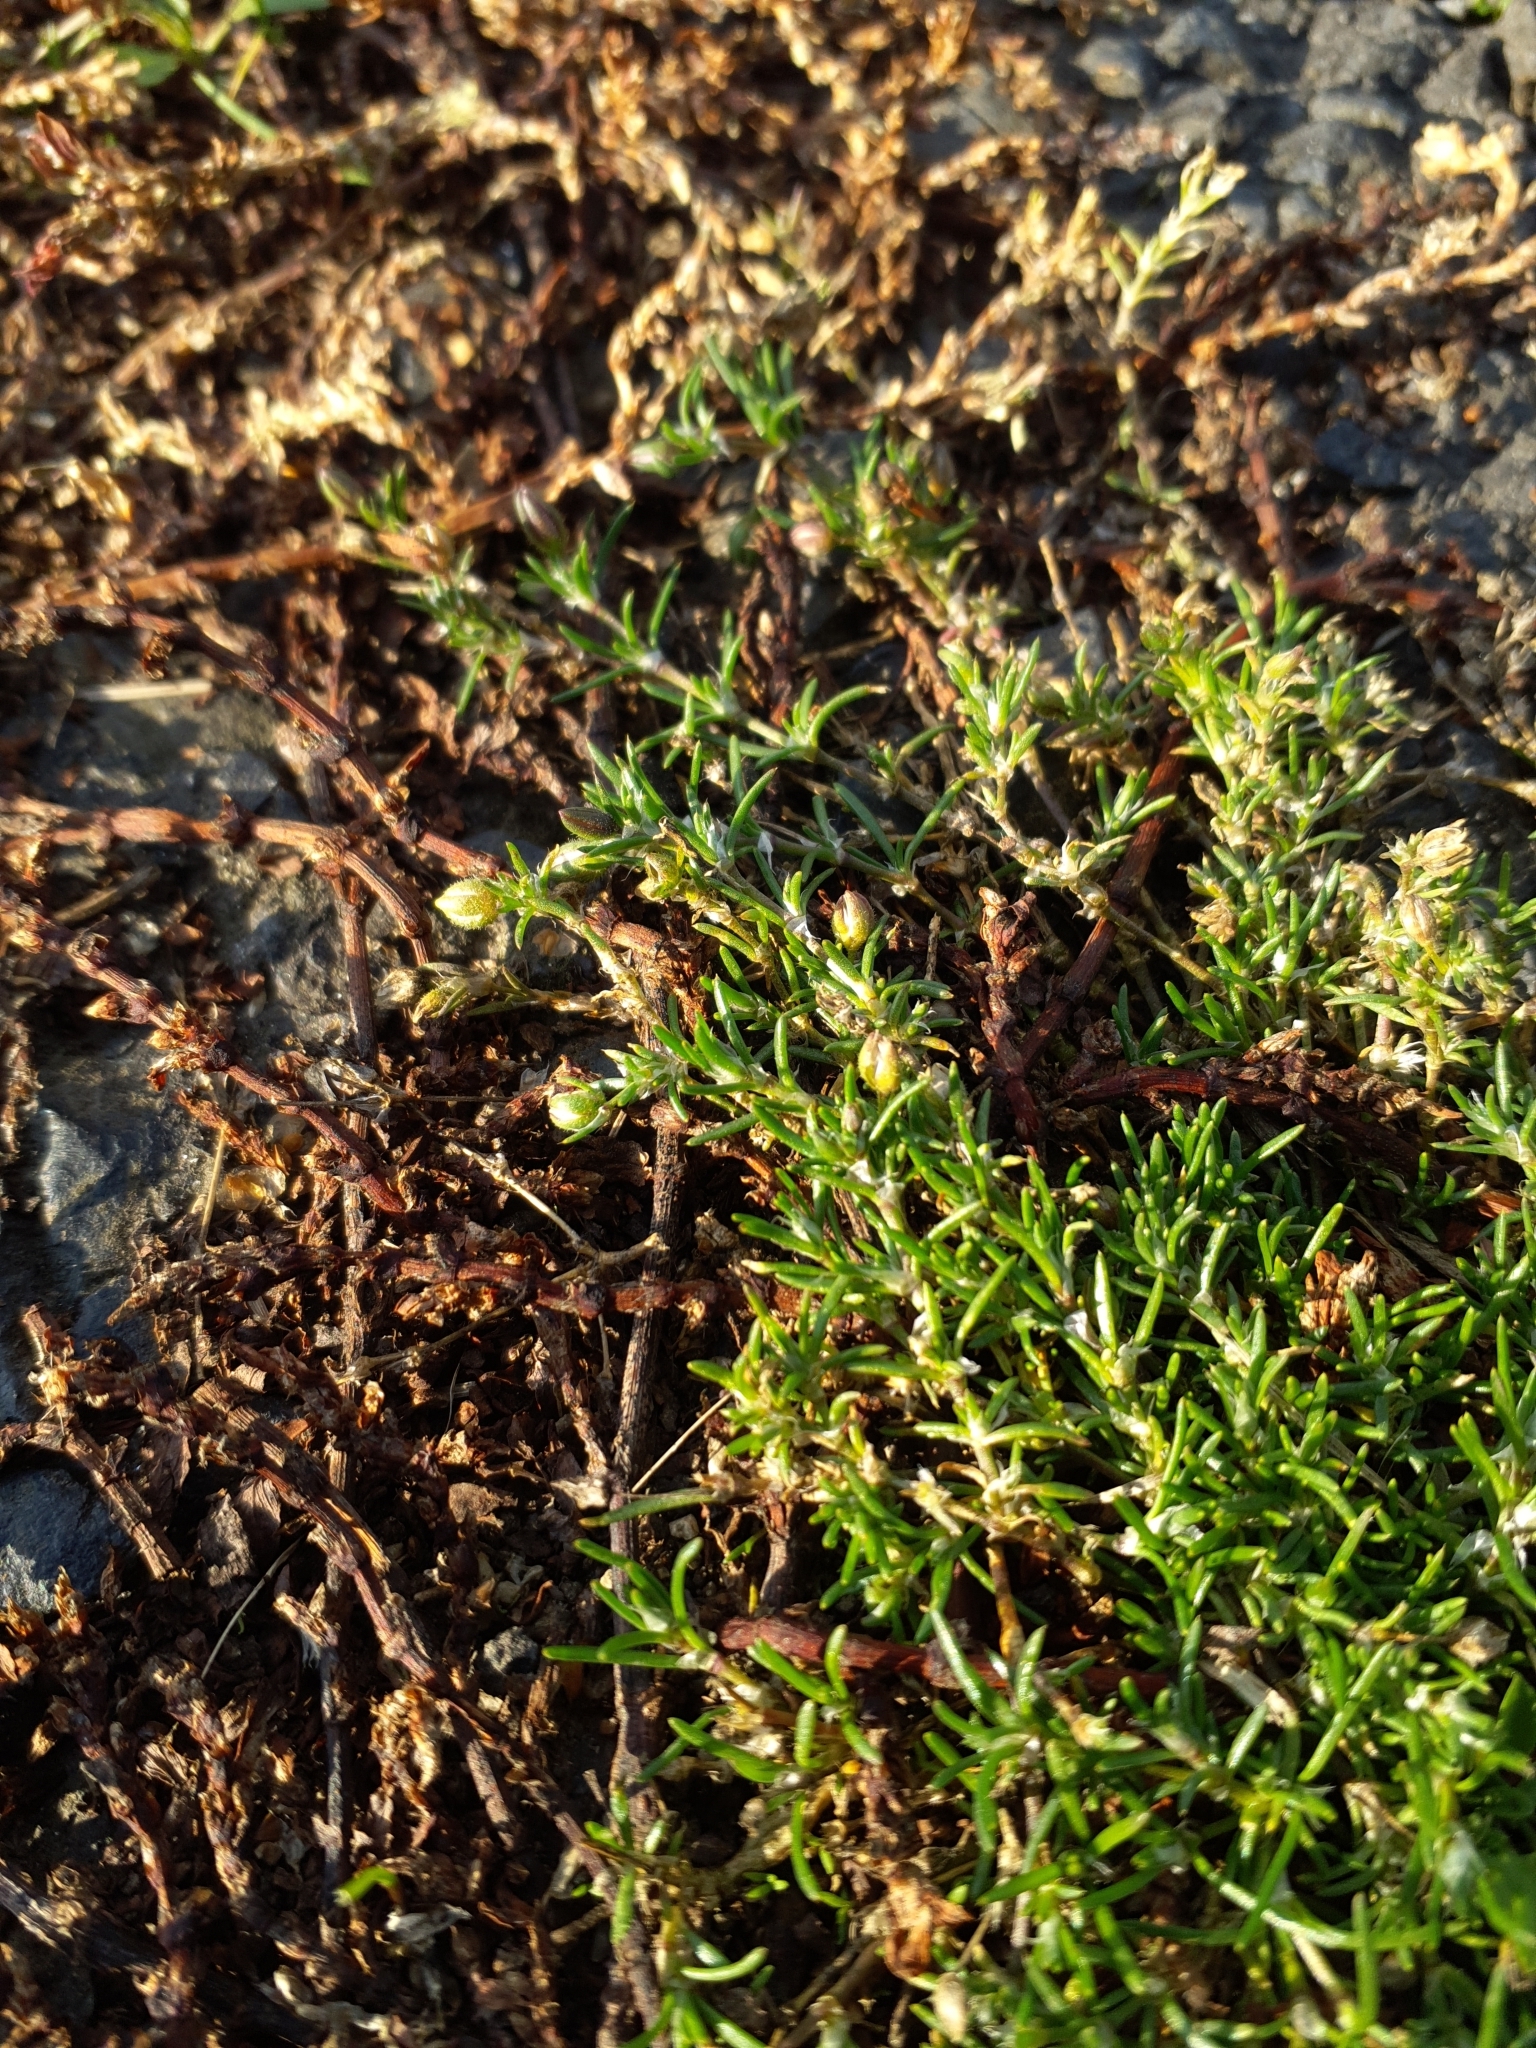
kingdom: Plantae
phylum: Tracheophyta
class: Magnoliopsida
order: Caryophyllales
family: Caryophyllaceae
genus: Spergularia
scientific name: Spergularia rubra
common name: Red sand-spurrey
